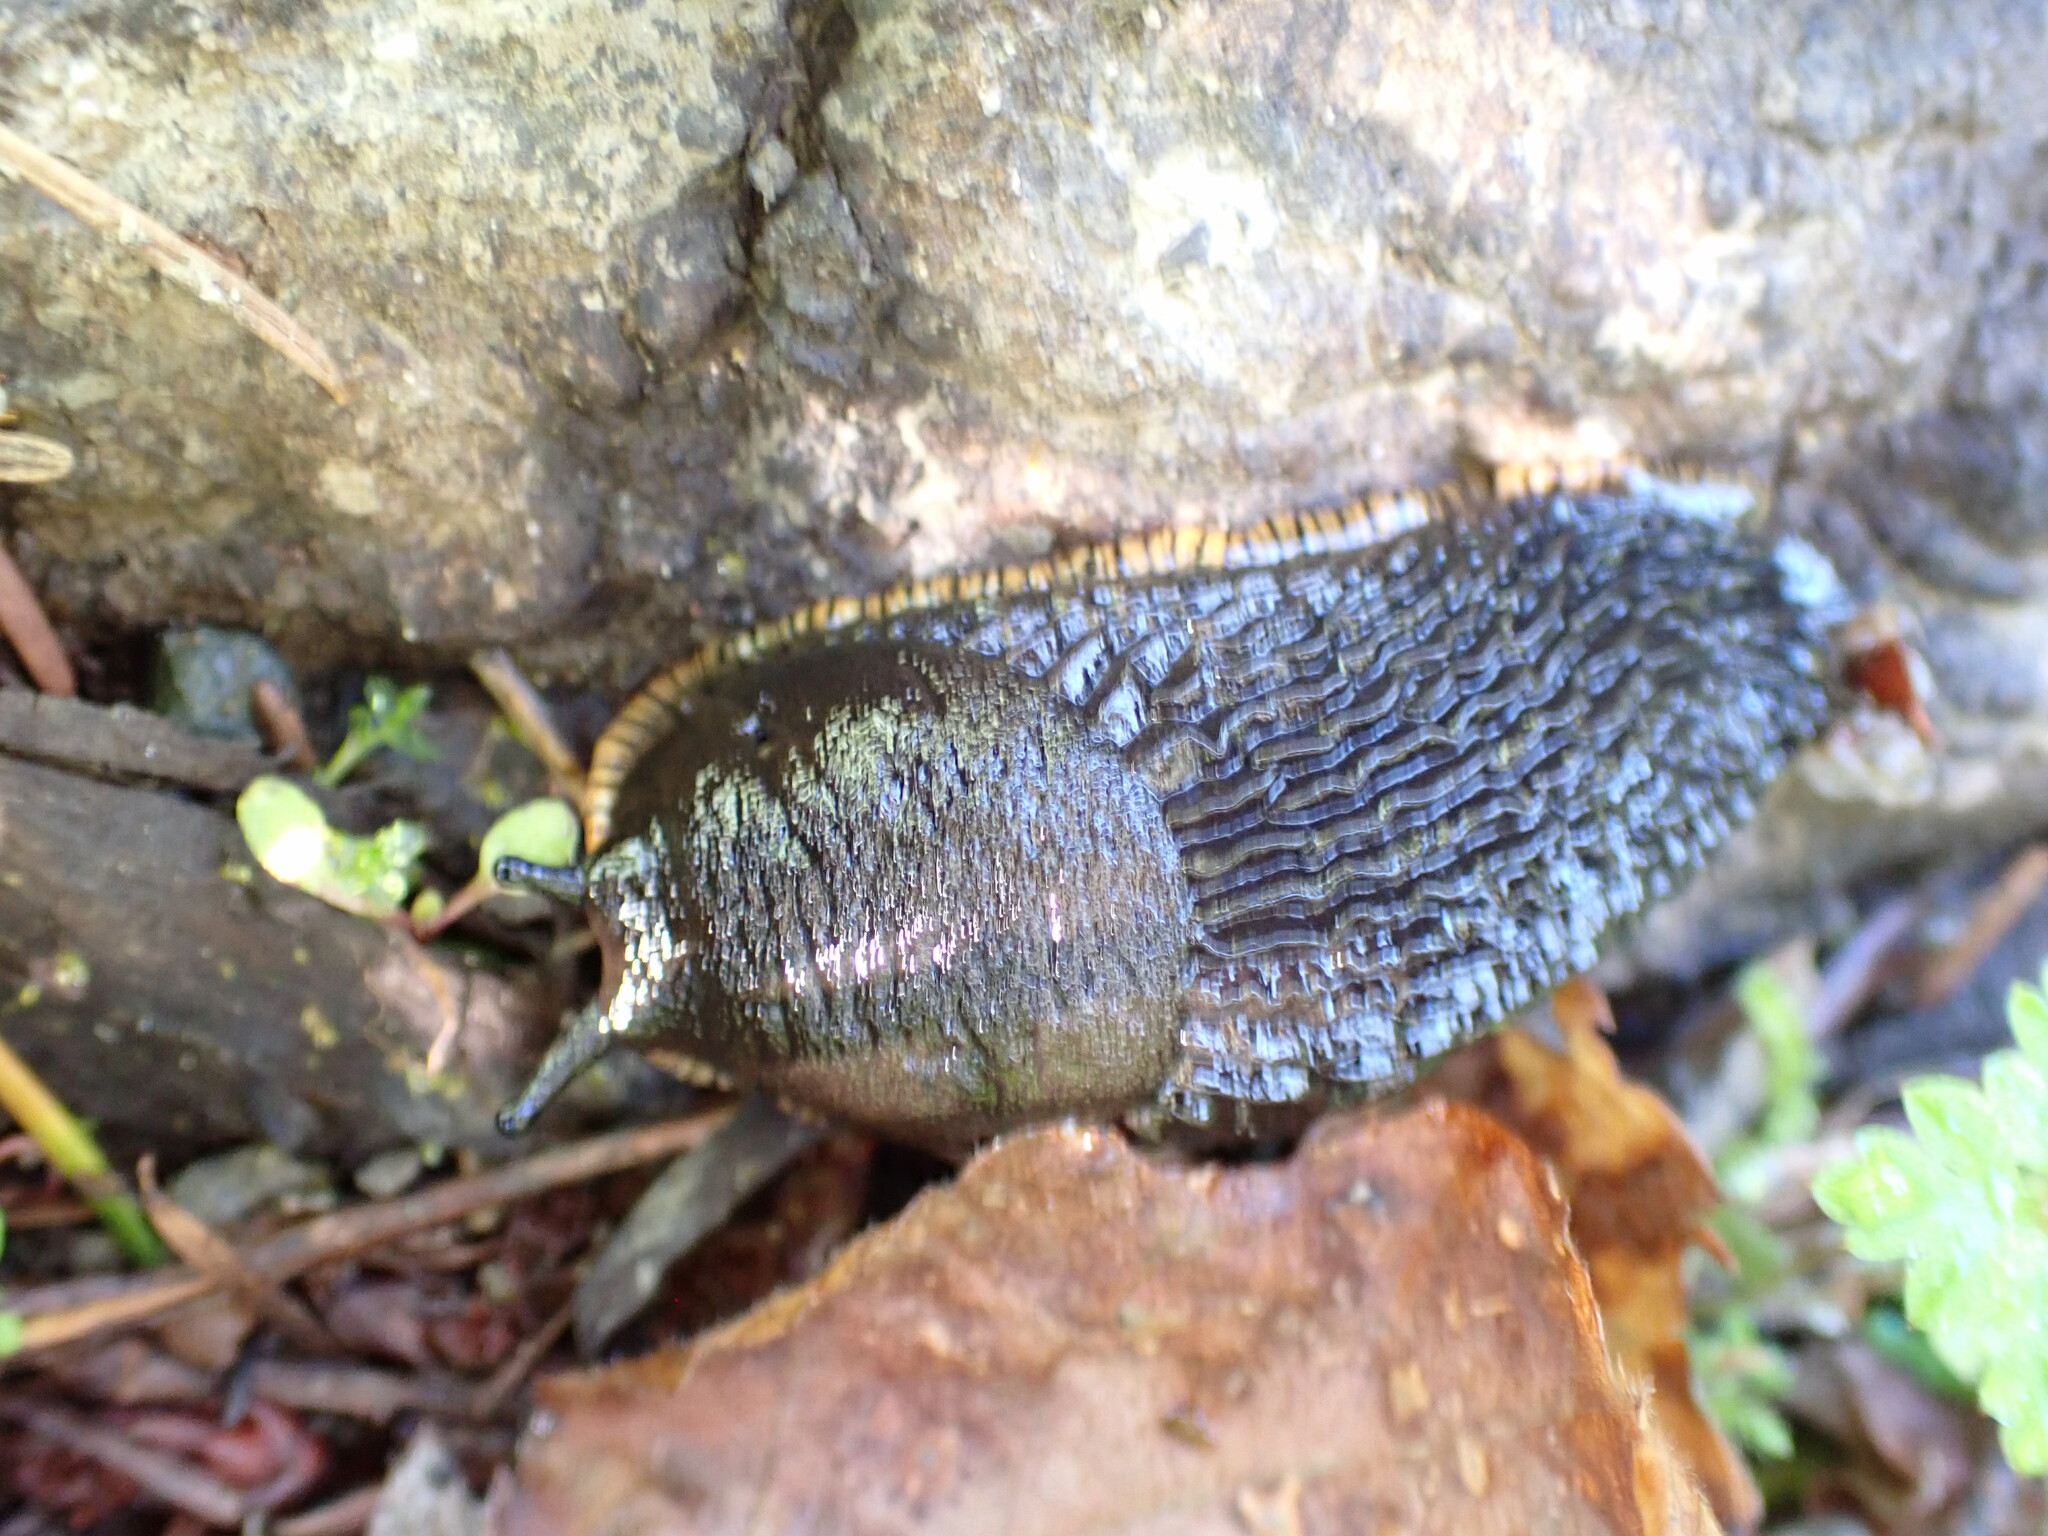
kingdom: Animalia
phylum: Mollusca
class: Gastropoda
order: Stylommatophora
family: Arionidae
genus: Arion
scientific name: Arion
